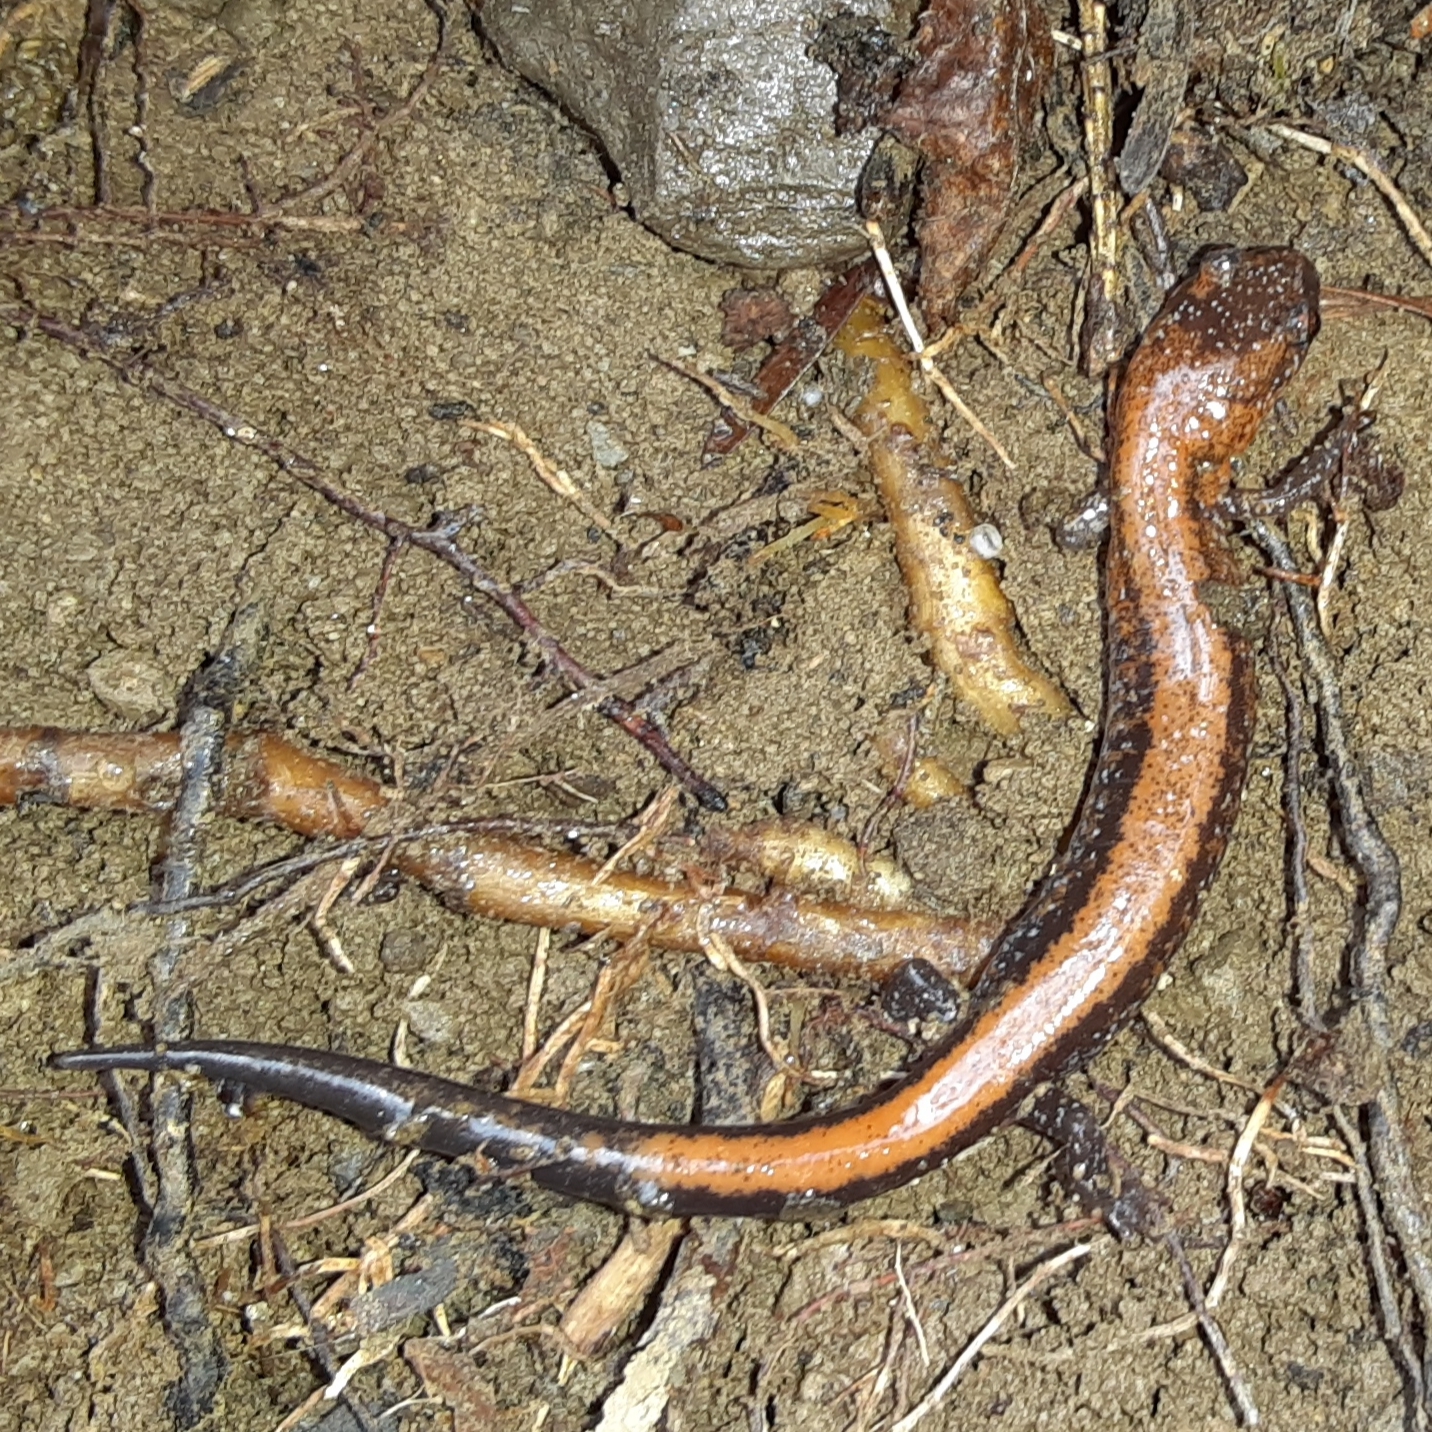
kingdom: Animalia
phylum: Chordata
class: Amphibia
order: Caudata
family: Plethodontidae
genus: Plethodon
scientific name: Plethodon cinereus
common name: Redback salamander
